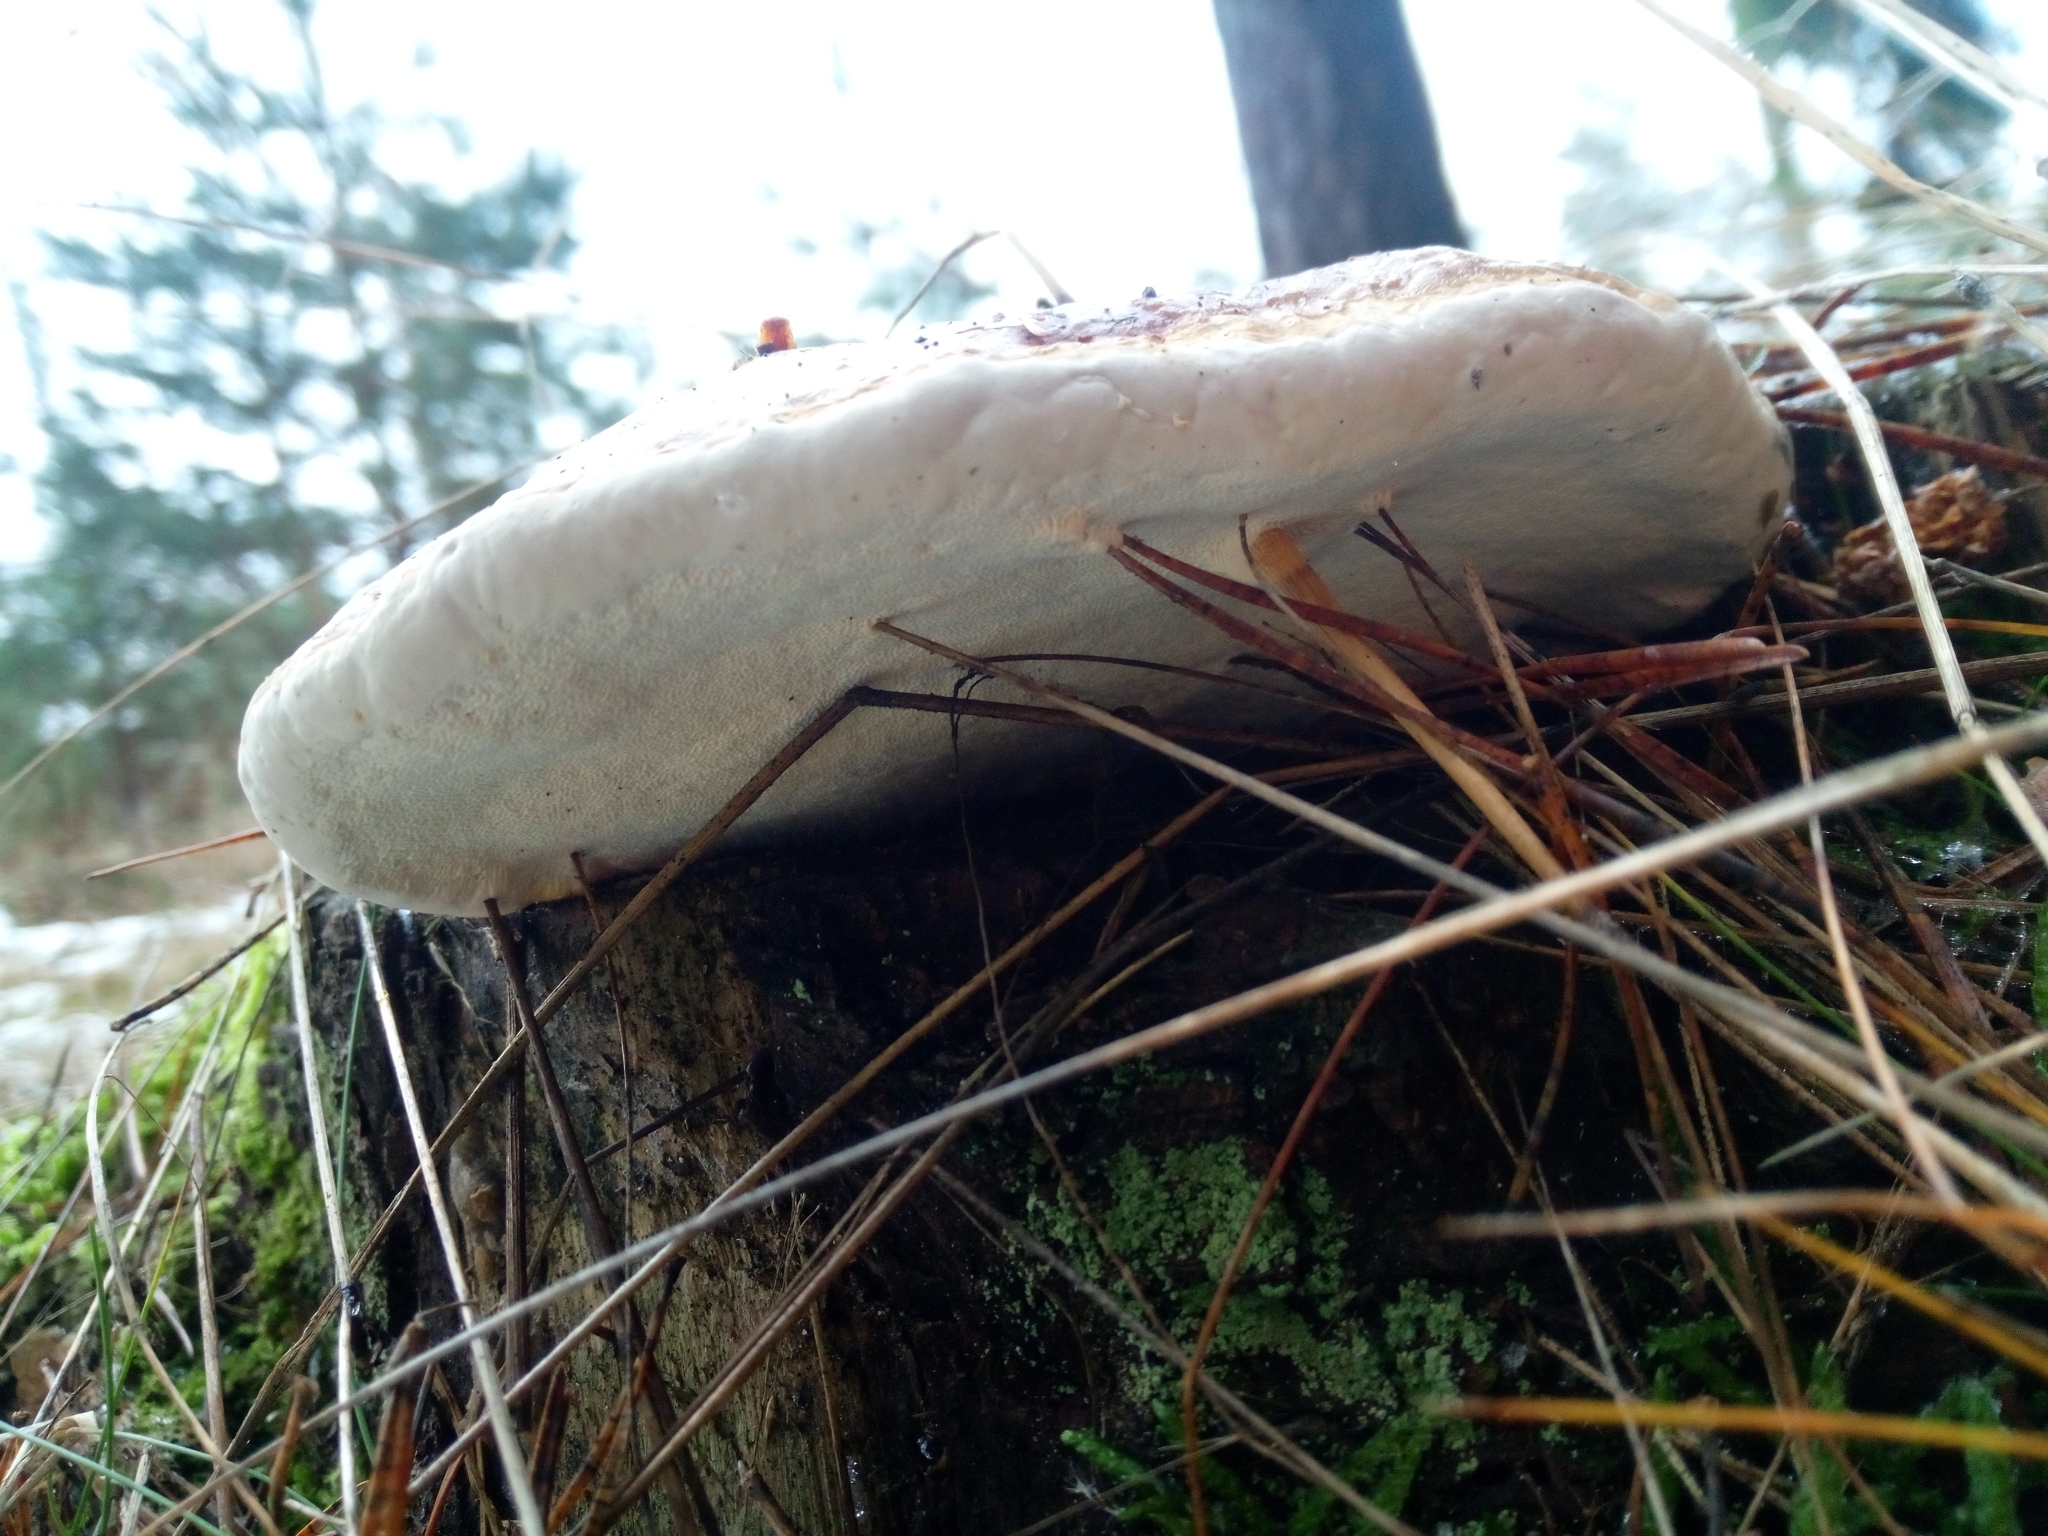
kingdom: Fungi
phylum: Basidiomycota
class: Agaricomycetes
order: Polyporales
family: Fomitopsidaceae
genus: Fomitopsis
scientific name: Fomitopsis pinicola
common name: Red-belted bracket
